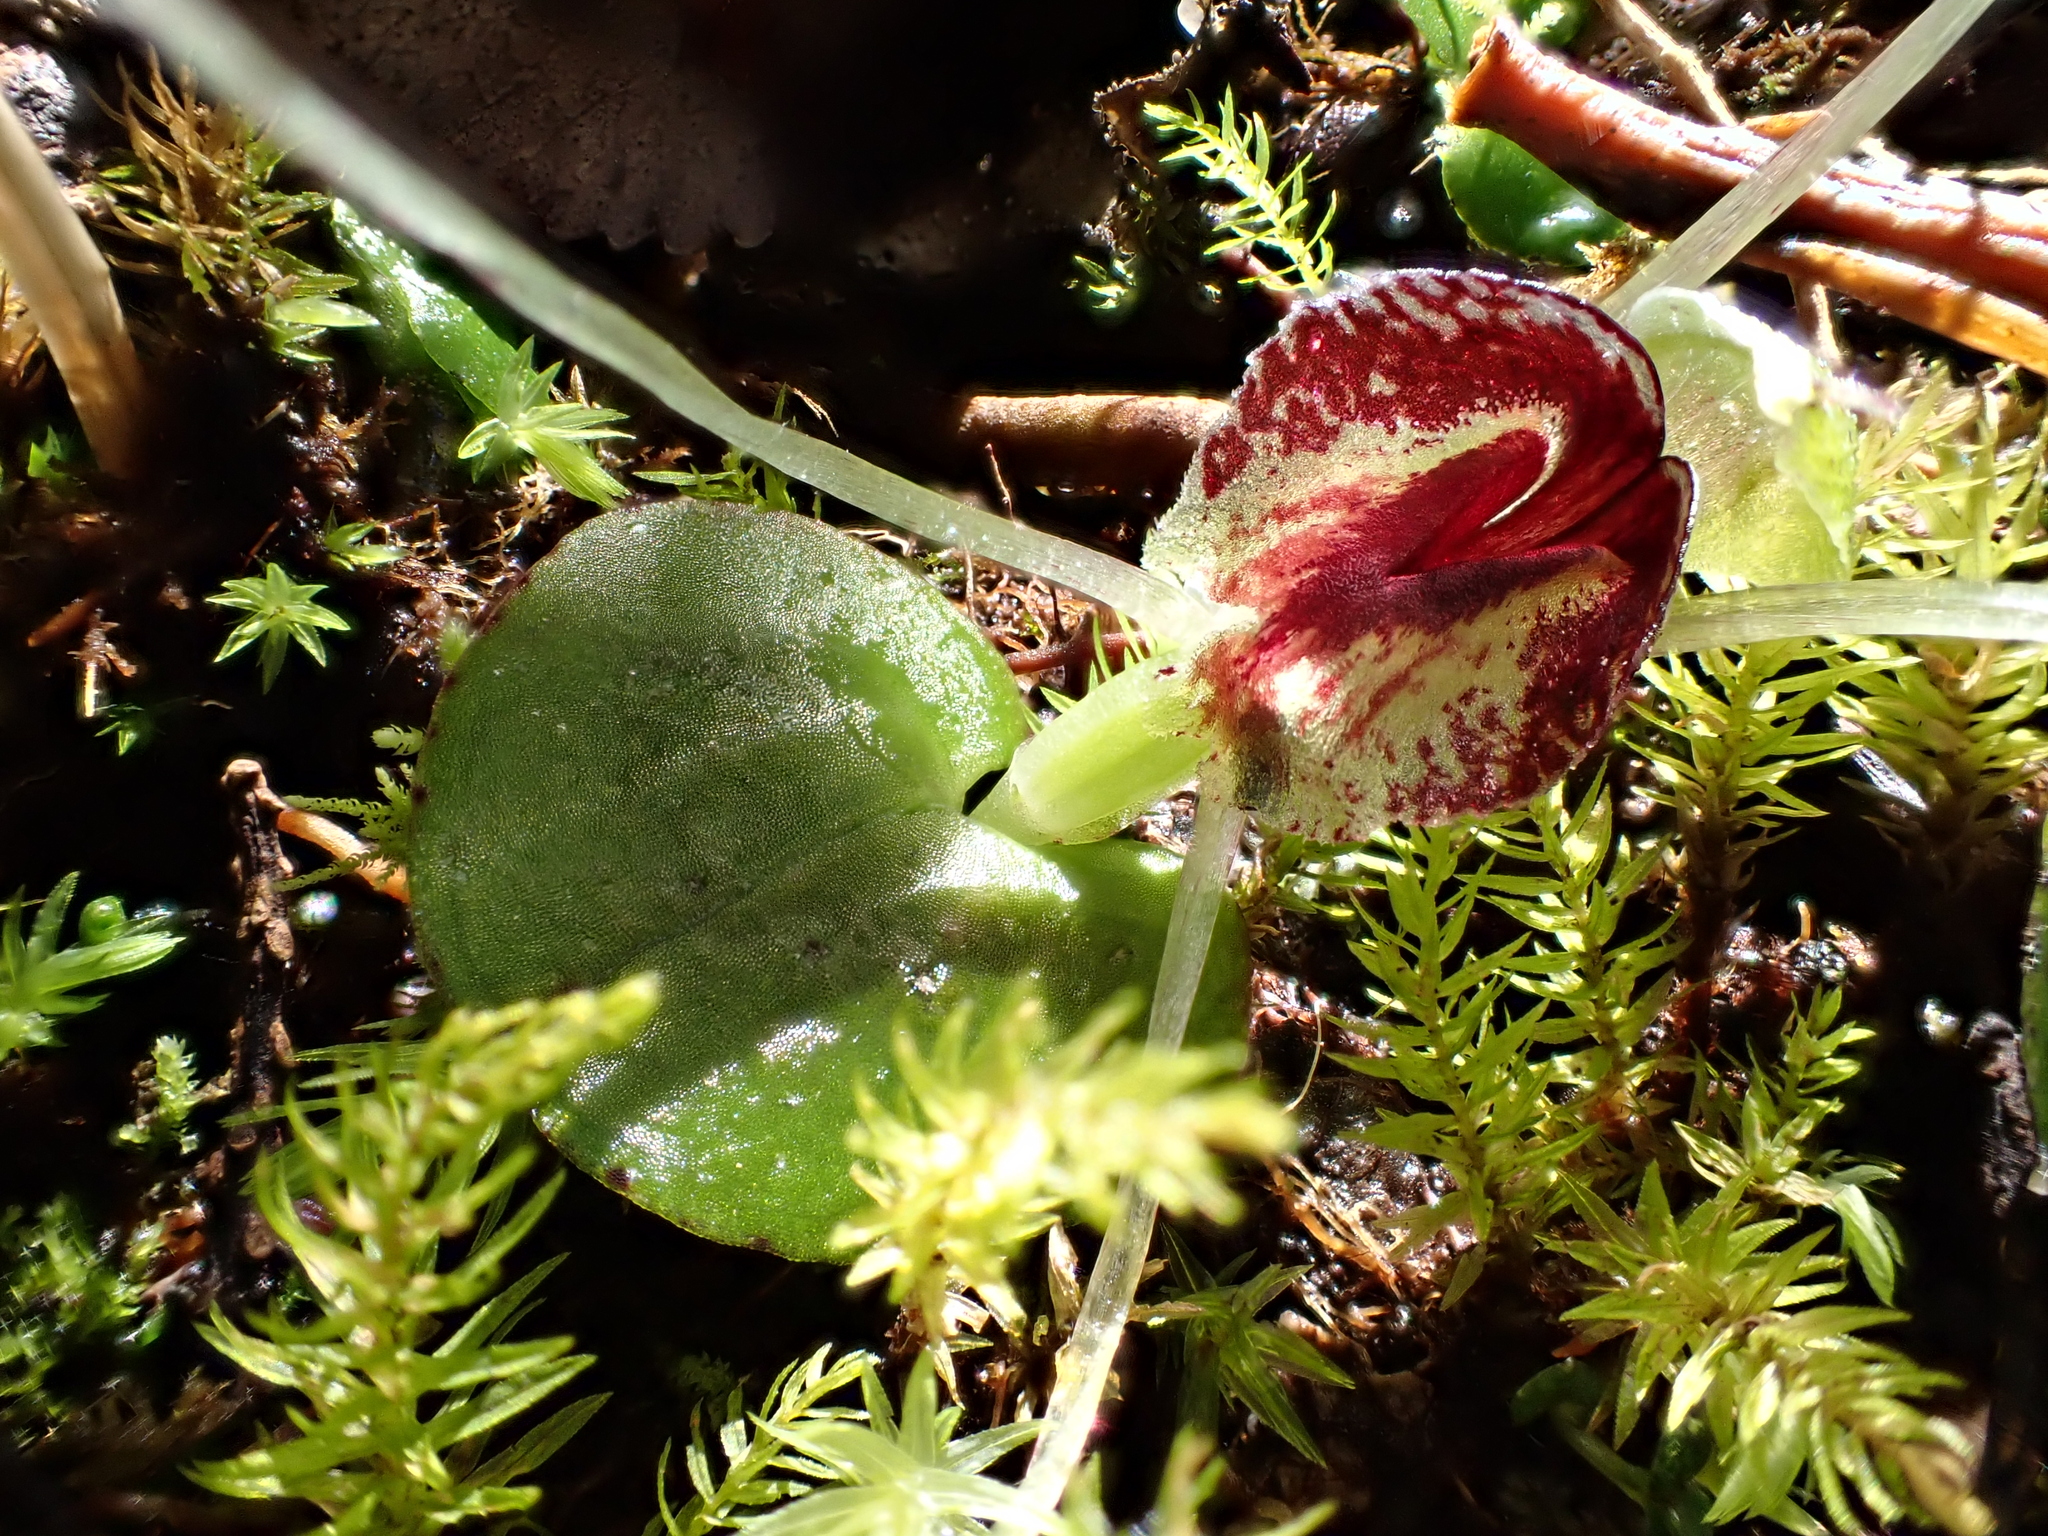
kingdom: Plantae
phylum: Tracheophyta
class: Liliopsida
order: Asparagales
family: Orchidaceae
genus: Corybas
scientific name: Corybas hatchii
